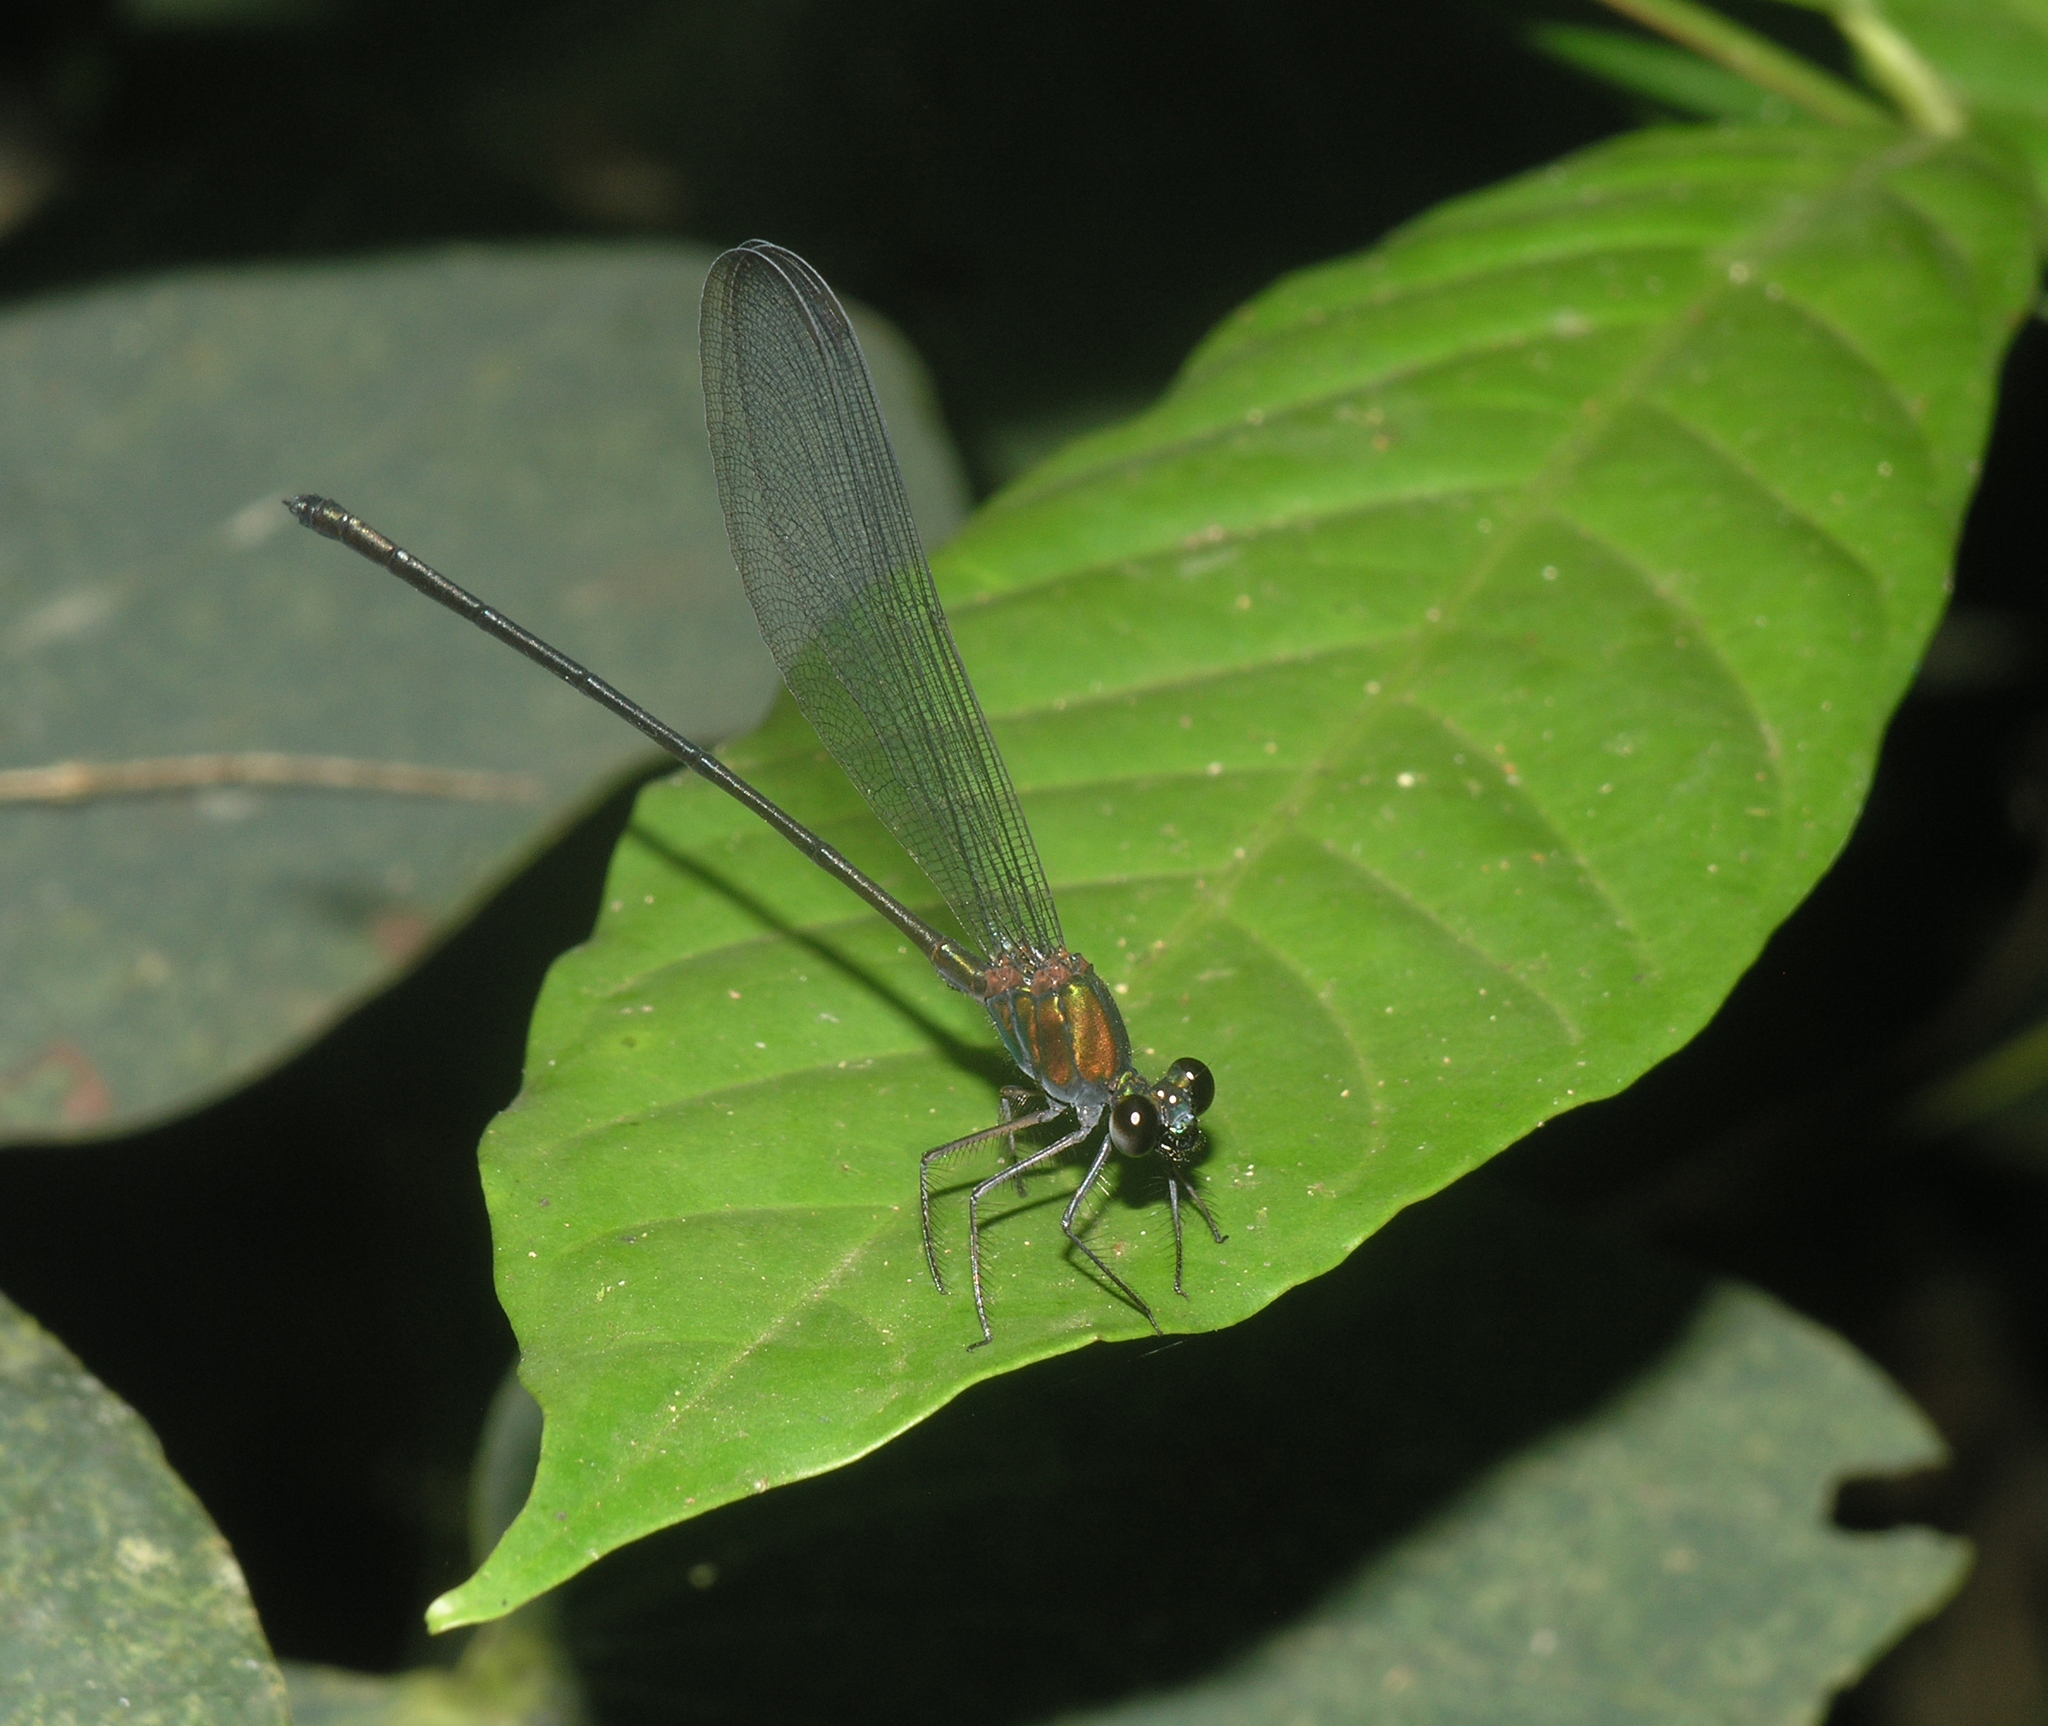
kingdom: Animalia
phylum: Arthropoda
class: Insecta
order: Odonata
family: Calopterygidae
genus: Echo
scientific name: Echo modesta
